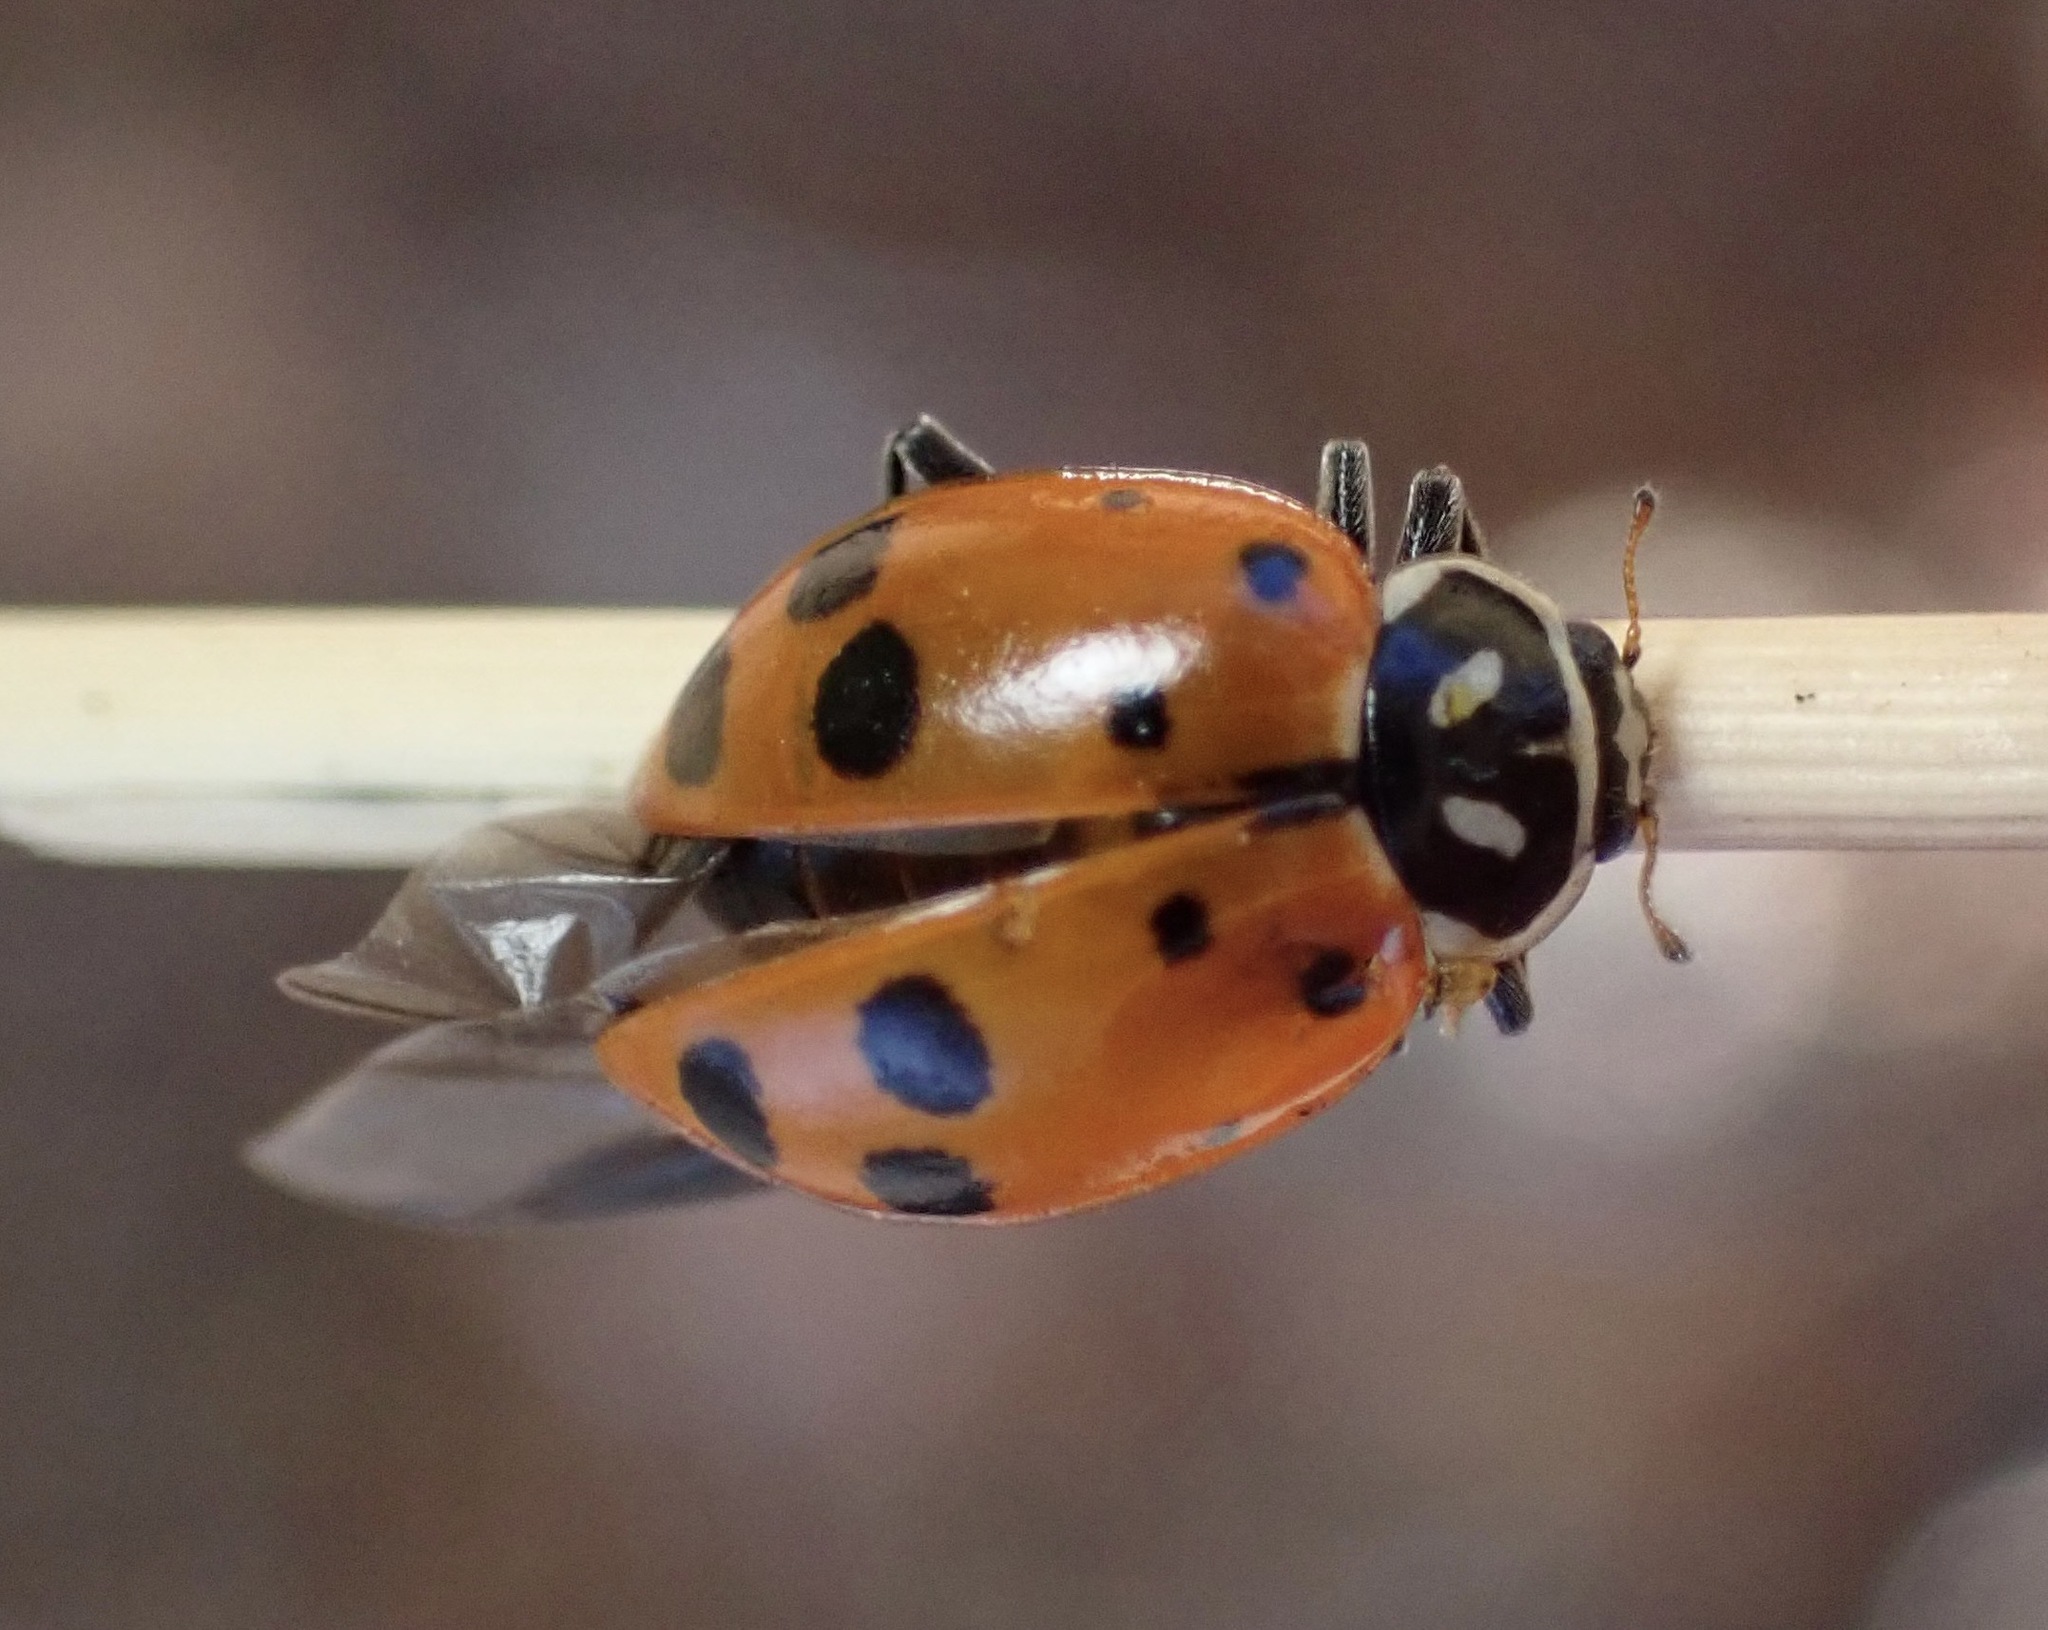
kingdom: Animalia
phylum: Arthropoda
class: Insecta
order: Coleoptera
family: Coccinellidae
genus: Hippodamia
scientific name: Hippodamia convergens
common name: Convergent lady beetle
